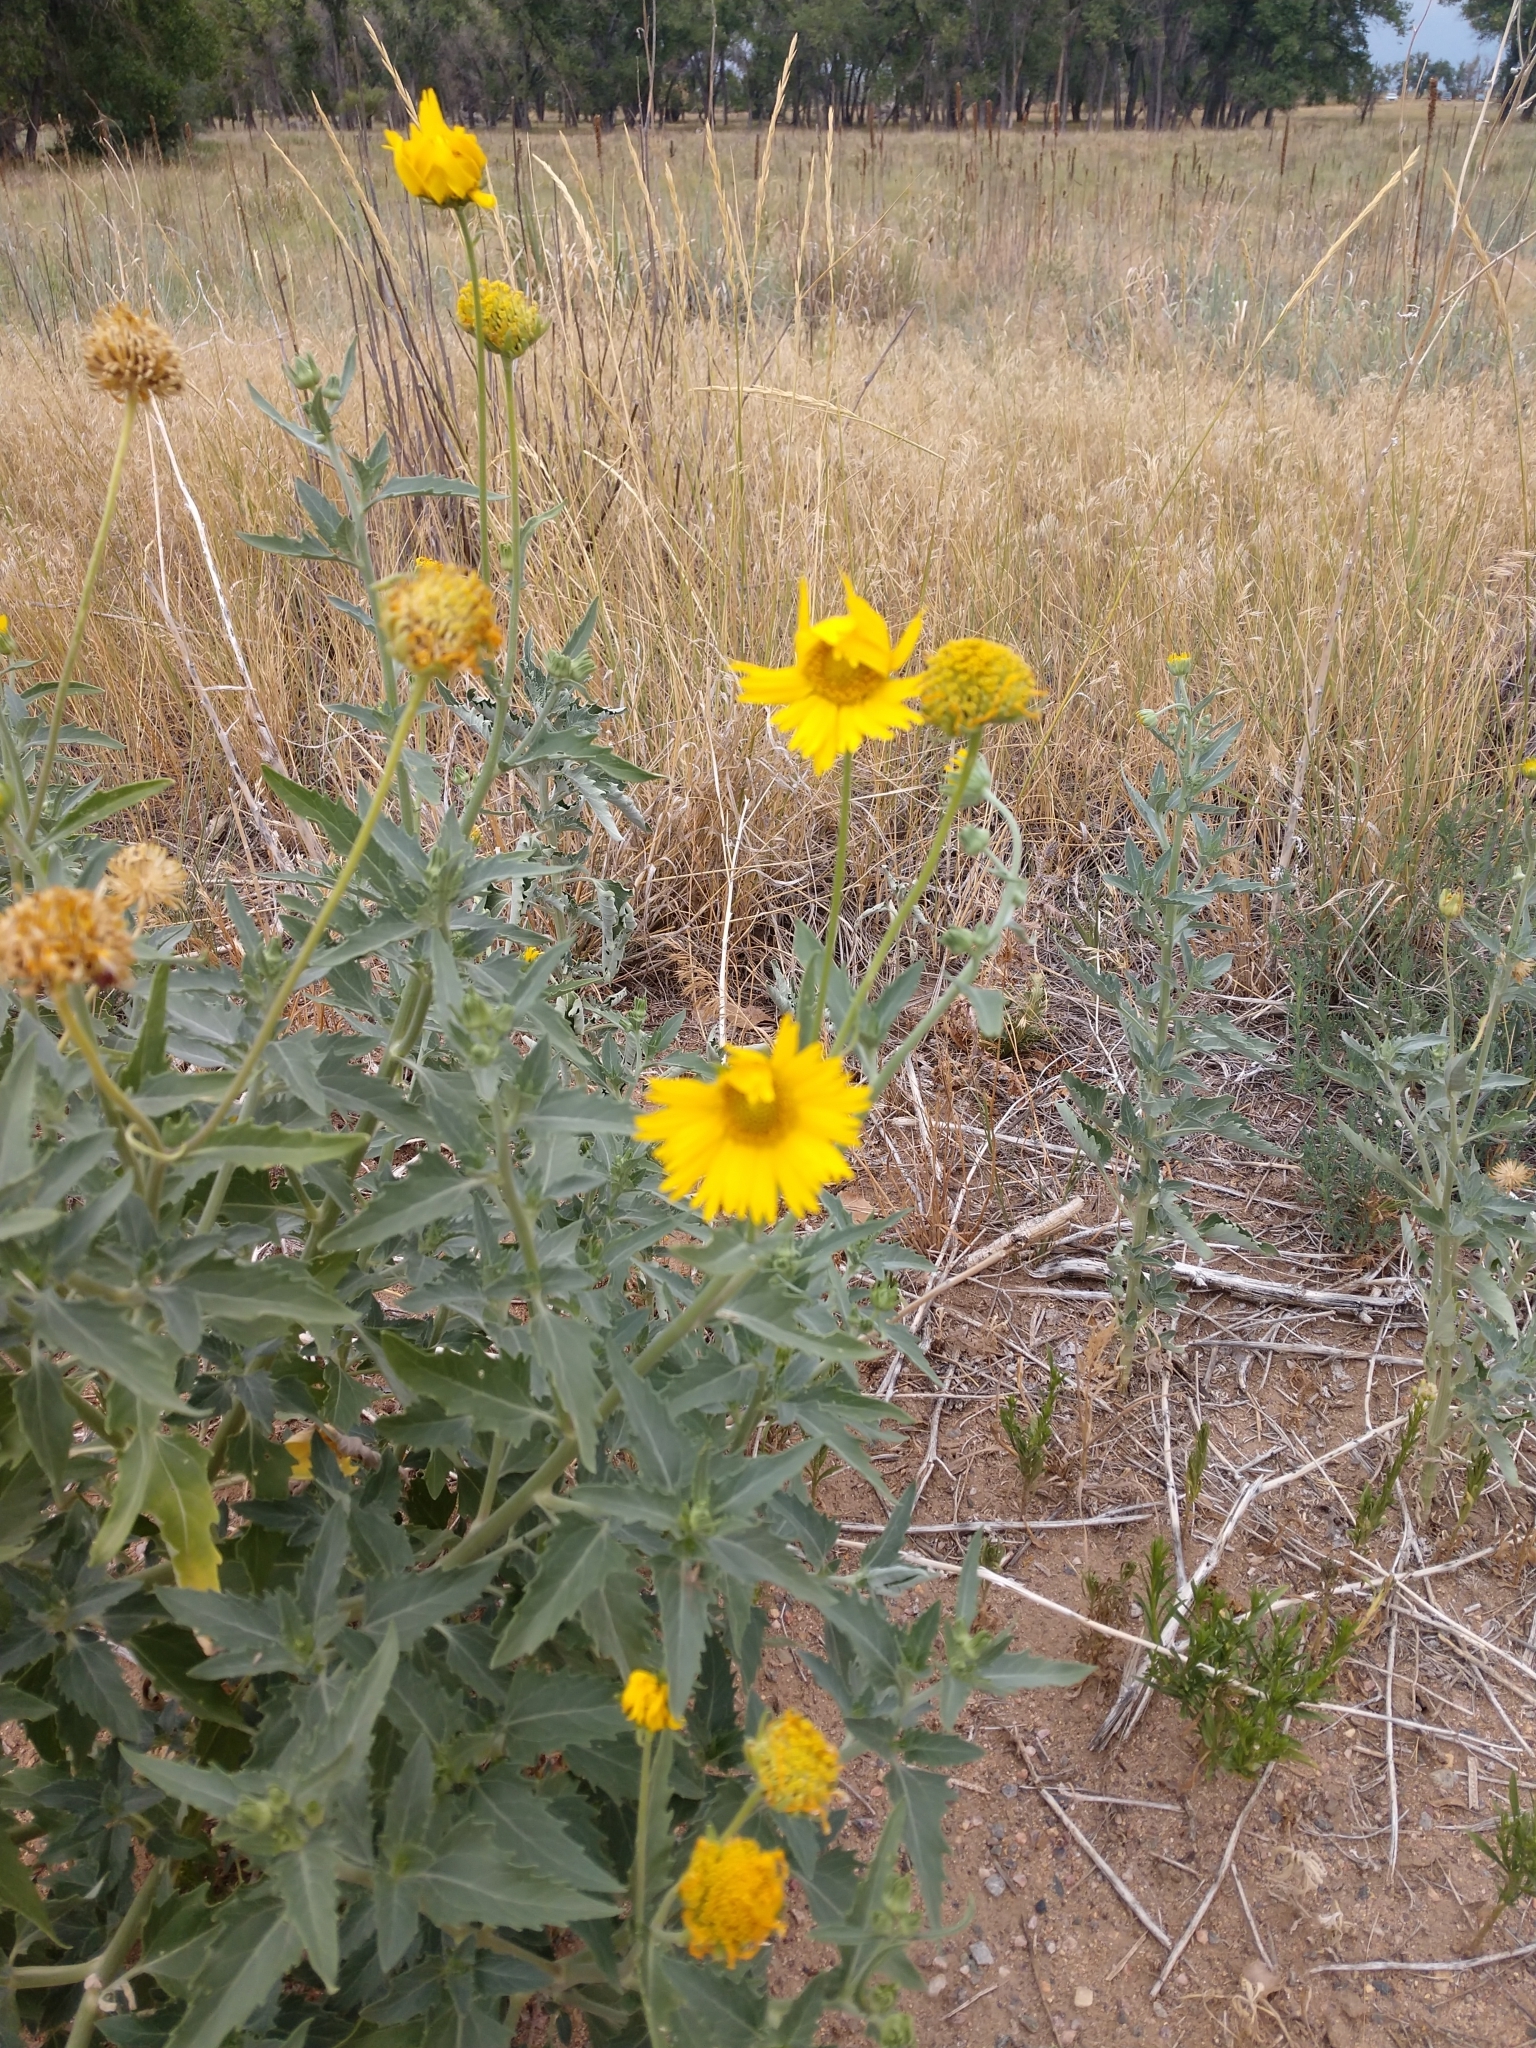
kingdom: Plantae
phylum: Tracheophyta
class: Magnoliopsida
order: Asterales
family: Asteraceae
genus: Verbesina
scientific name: Verbesina encelioides
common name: Golden crownbeard
